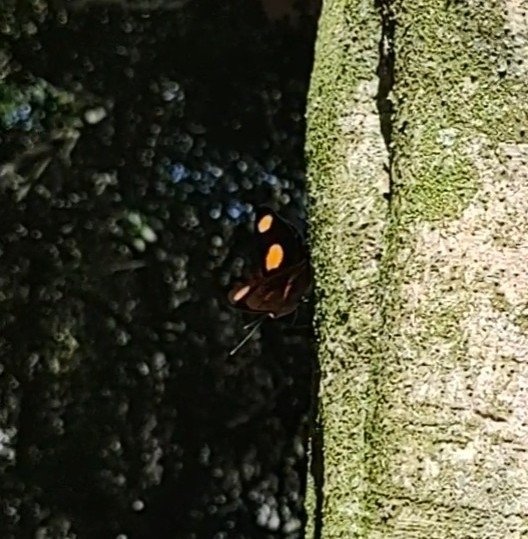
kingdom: Animalia
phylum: Arthropoda
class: Insecta
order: Lepidoptera
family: Nymphalidae
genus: Catonephele
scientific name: Catonephele numilia
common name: Blue-frosted banner
